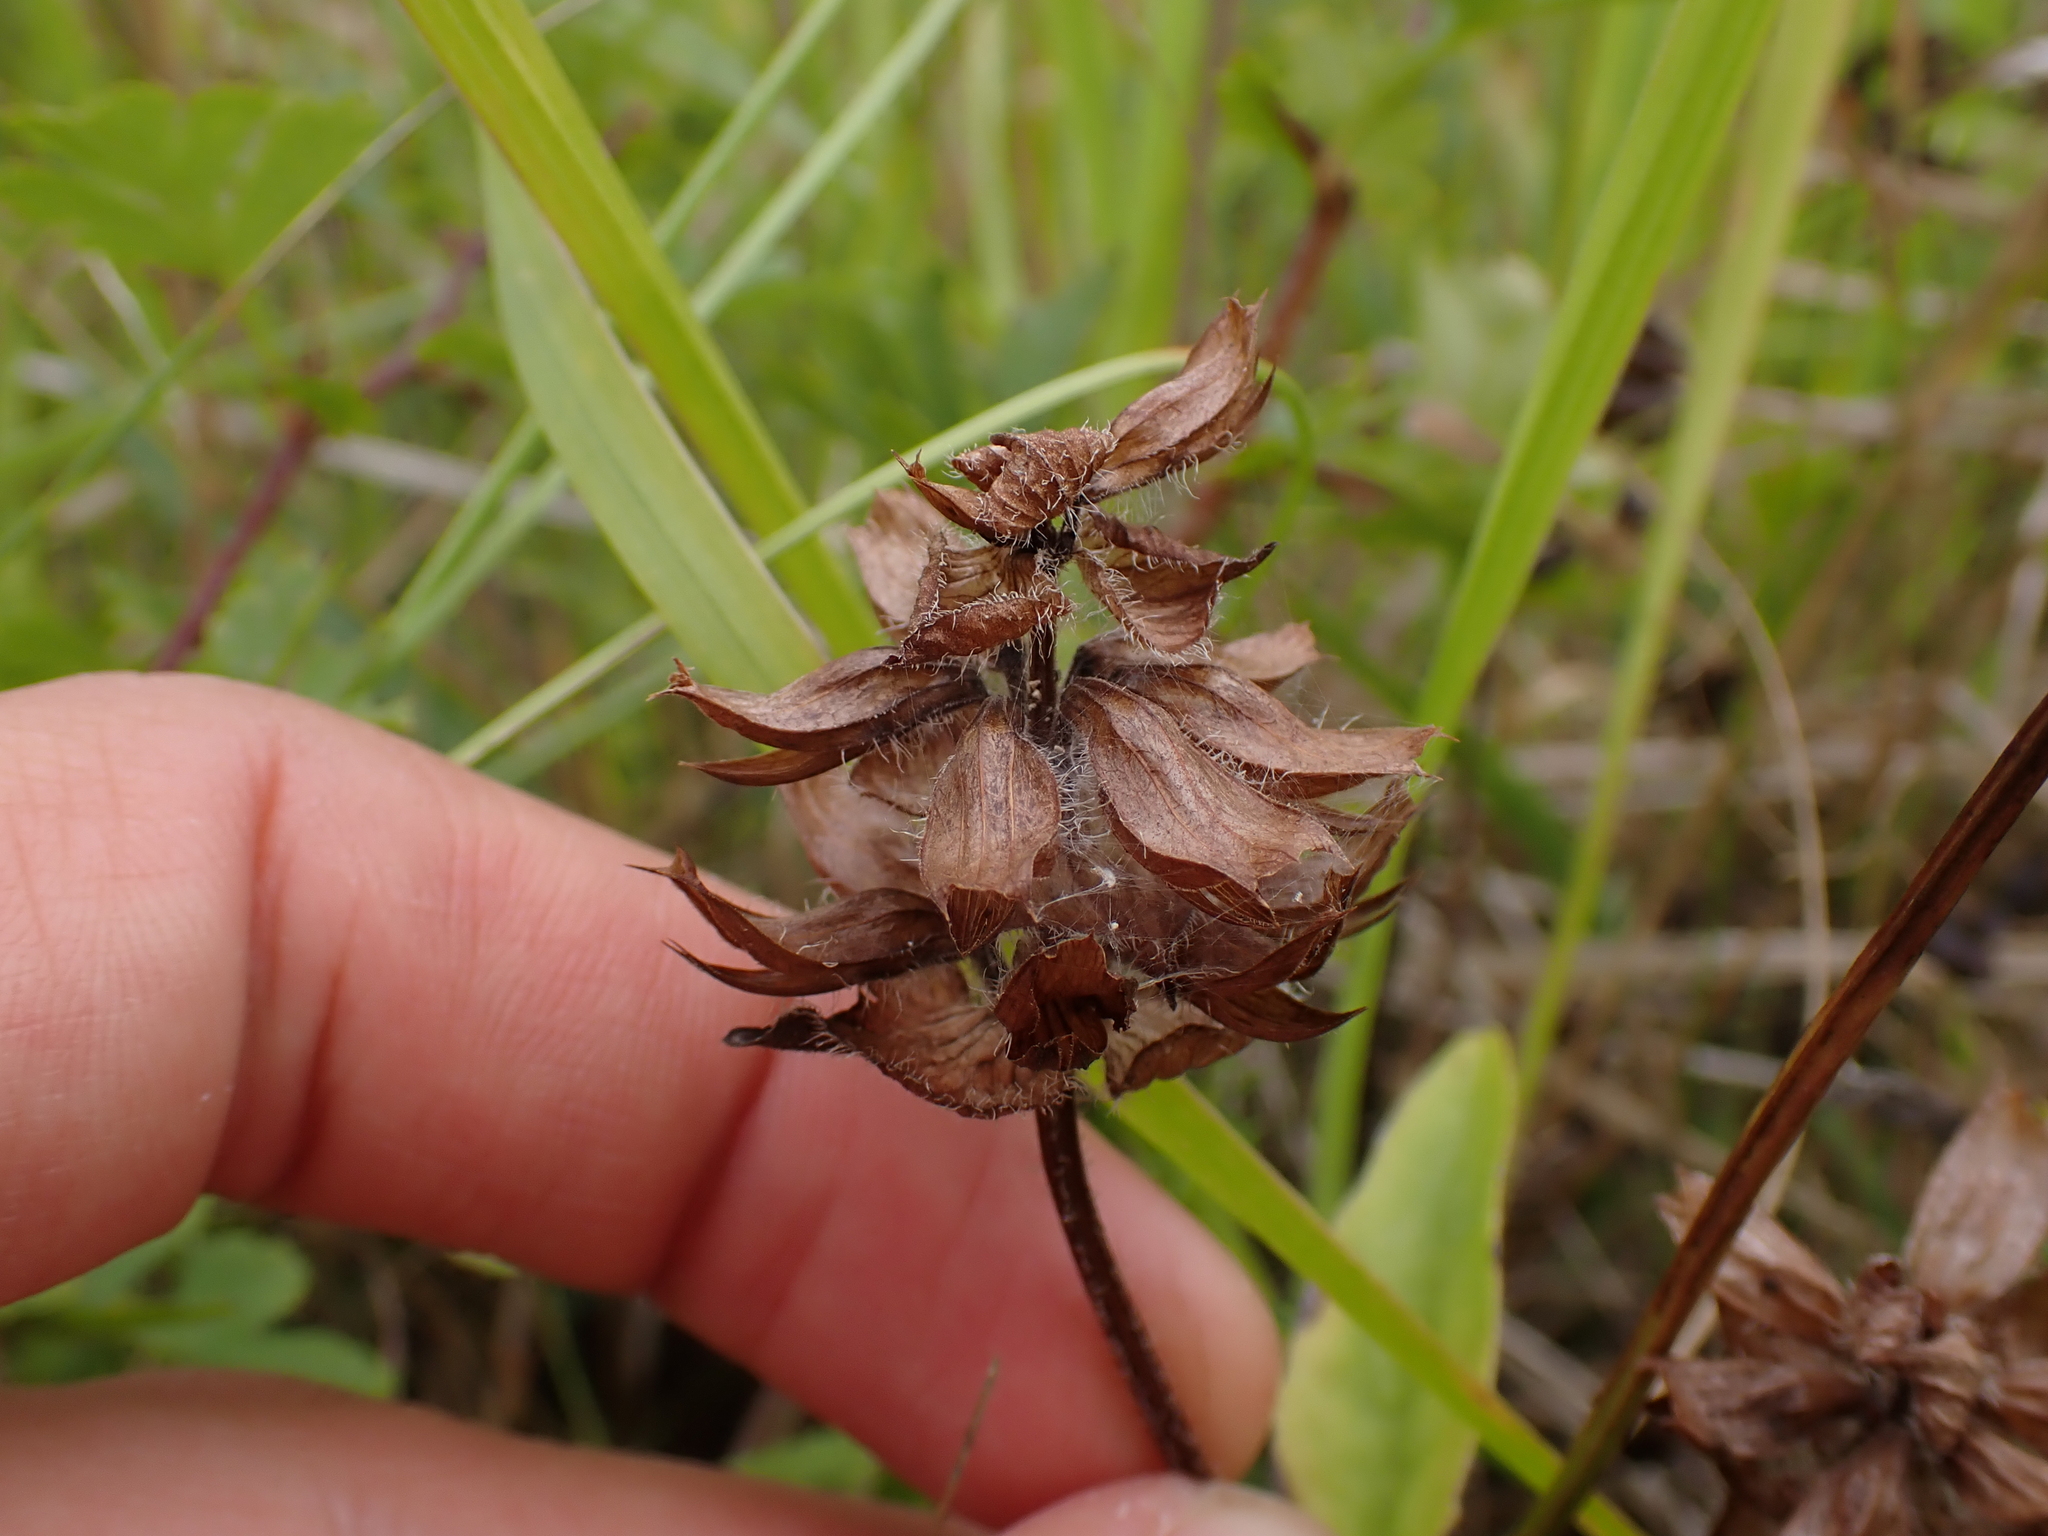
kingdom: Plantae
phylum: Tracheophyta
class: Magnoliopsida
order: Lamiales
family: Lamiaceae
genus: Prunella
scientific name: Prunella grandiflora
